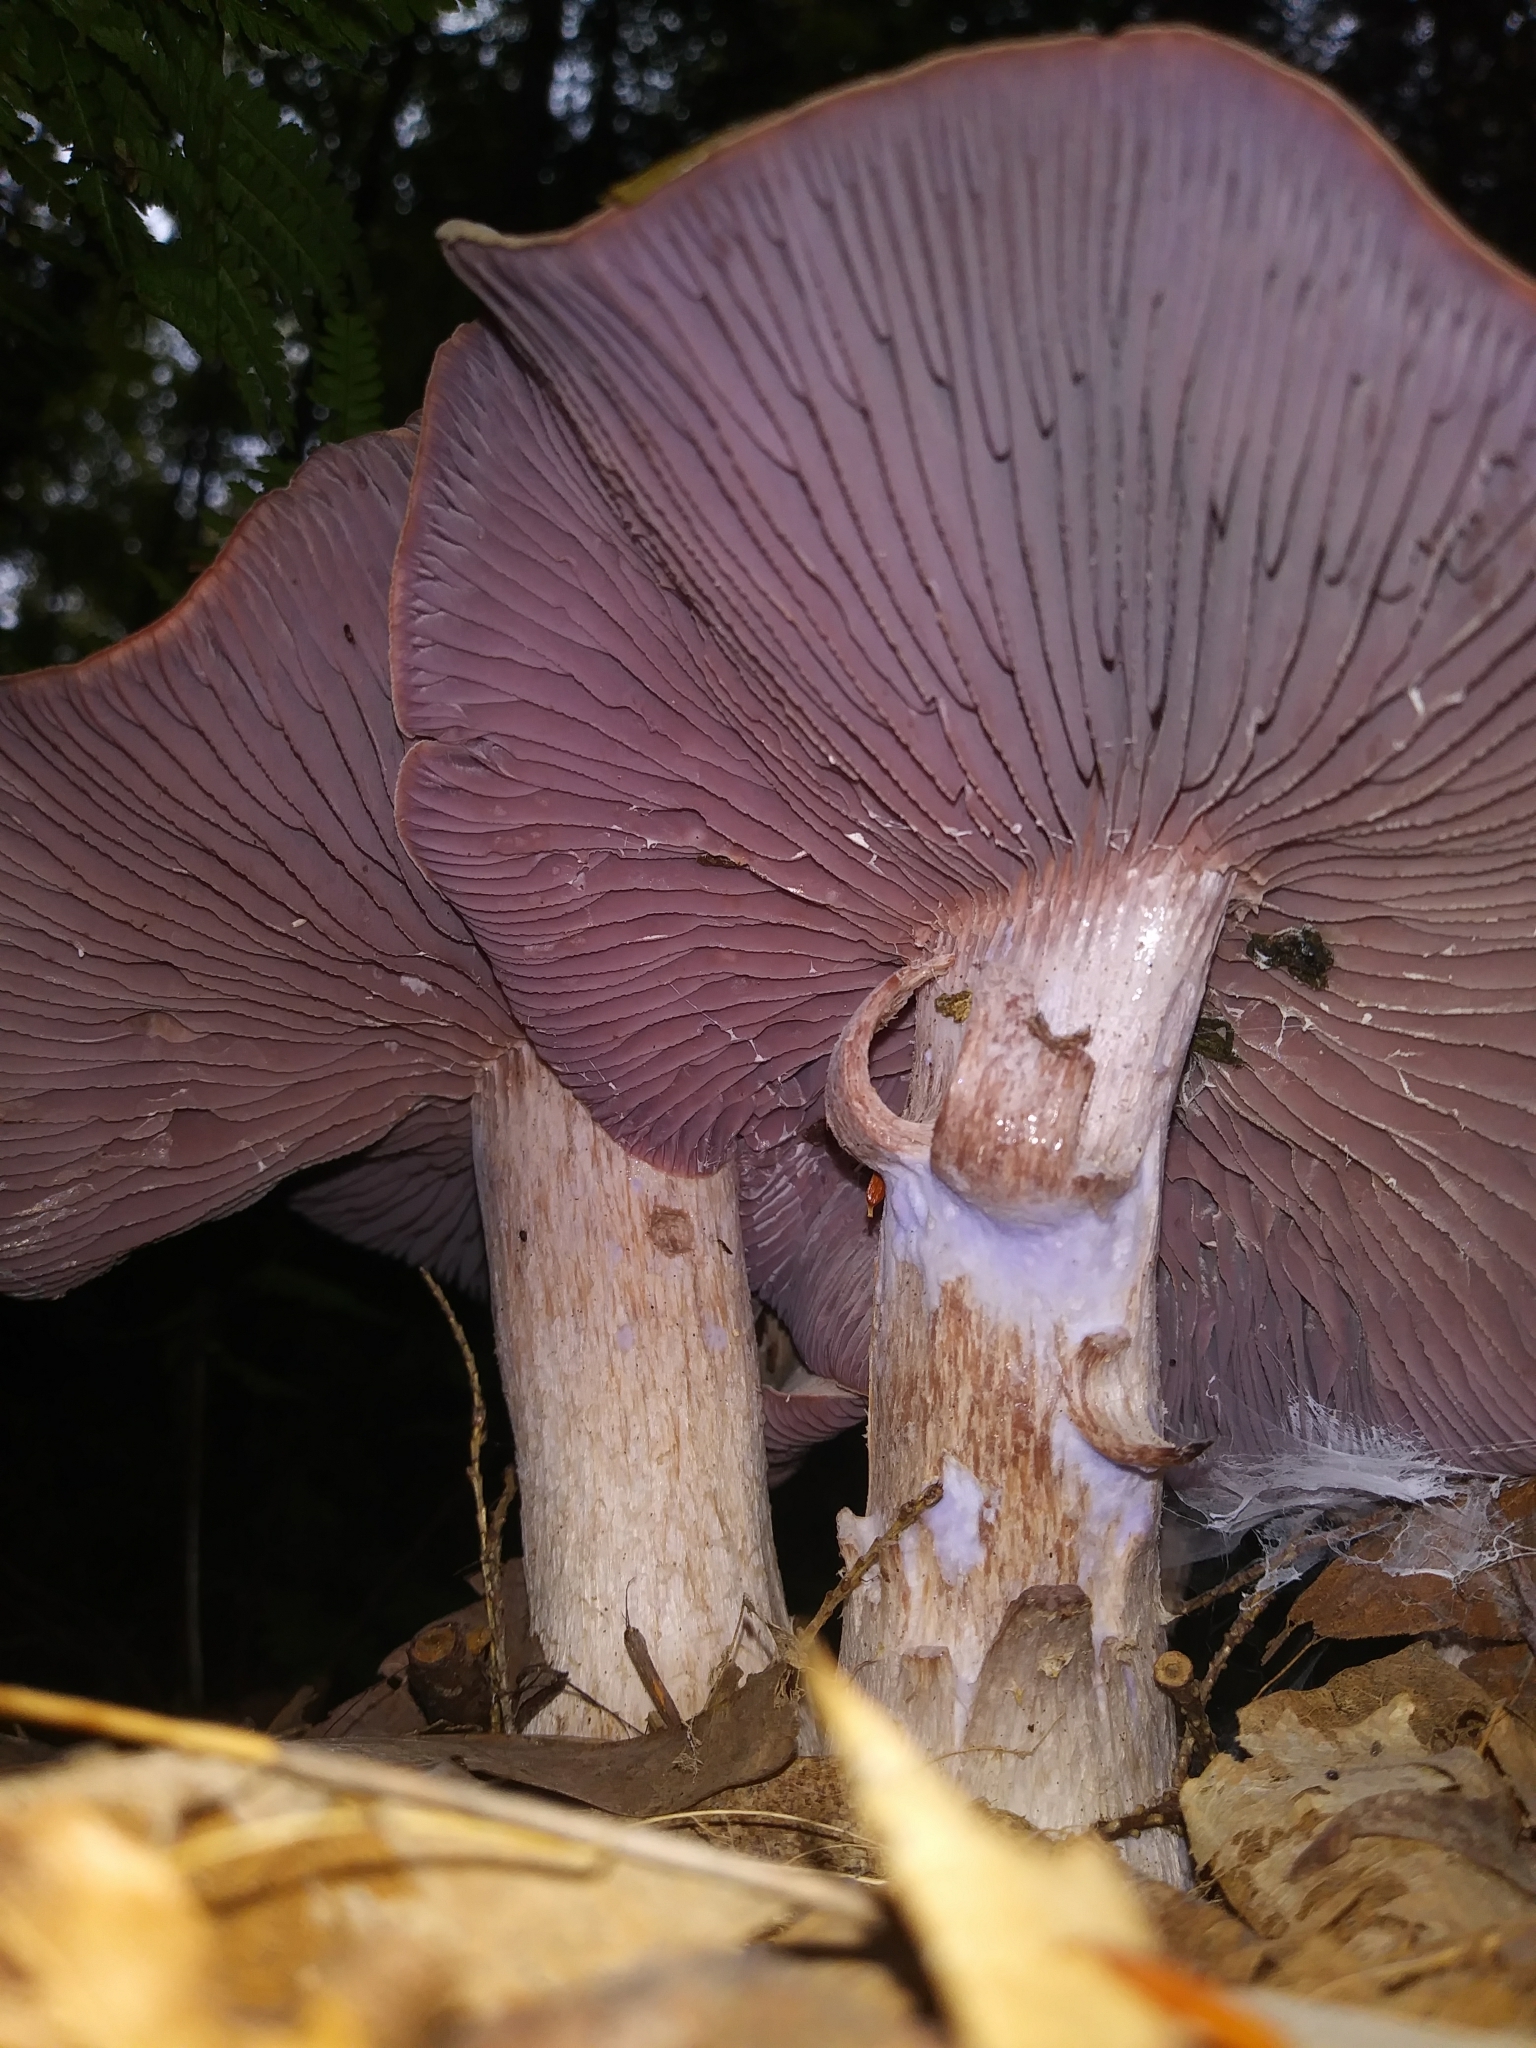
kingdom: Fungi
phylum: Basidiomycota
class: Agaricomycetes
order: Agaricales
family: Hydnangiaceae
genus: Laccaria
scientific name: Laccaria ochropurpurea
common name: Purple laccaria
